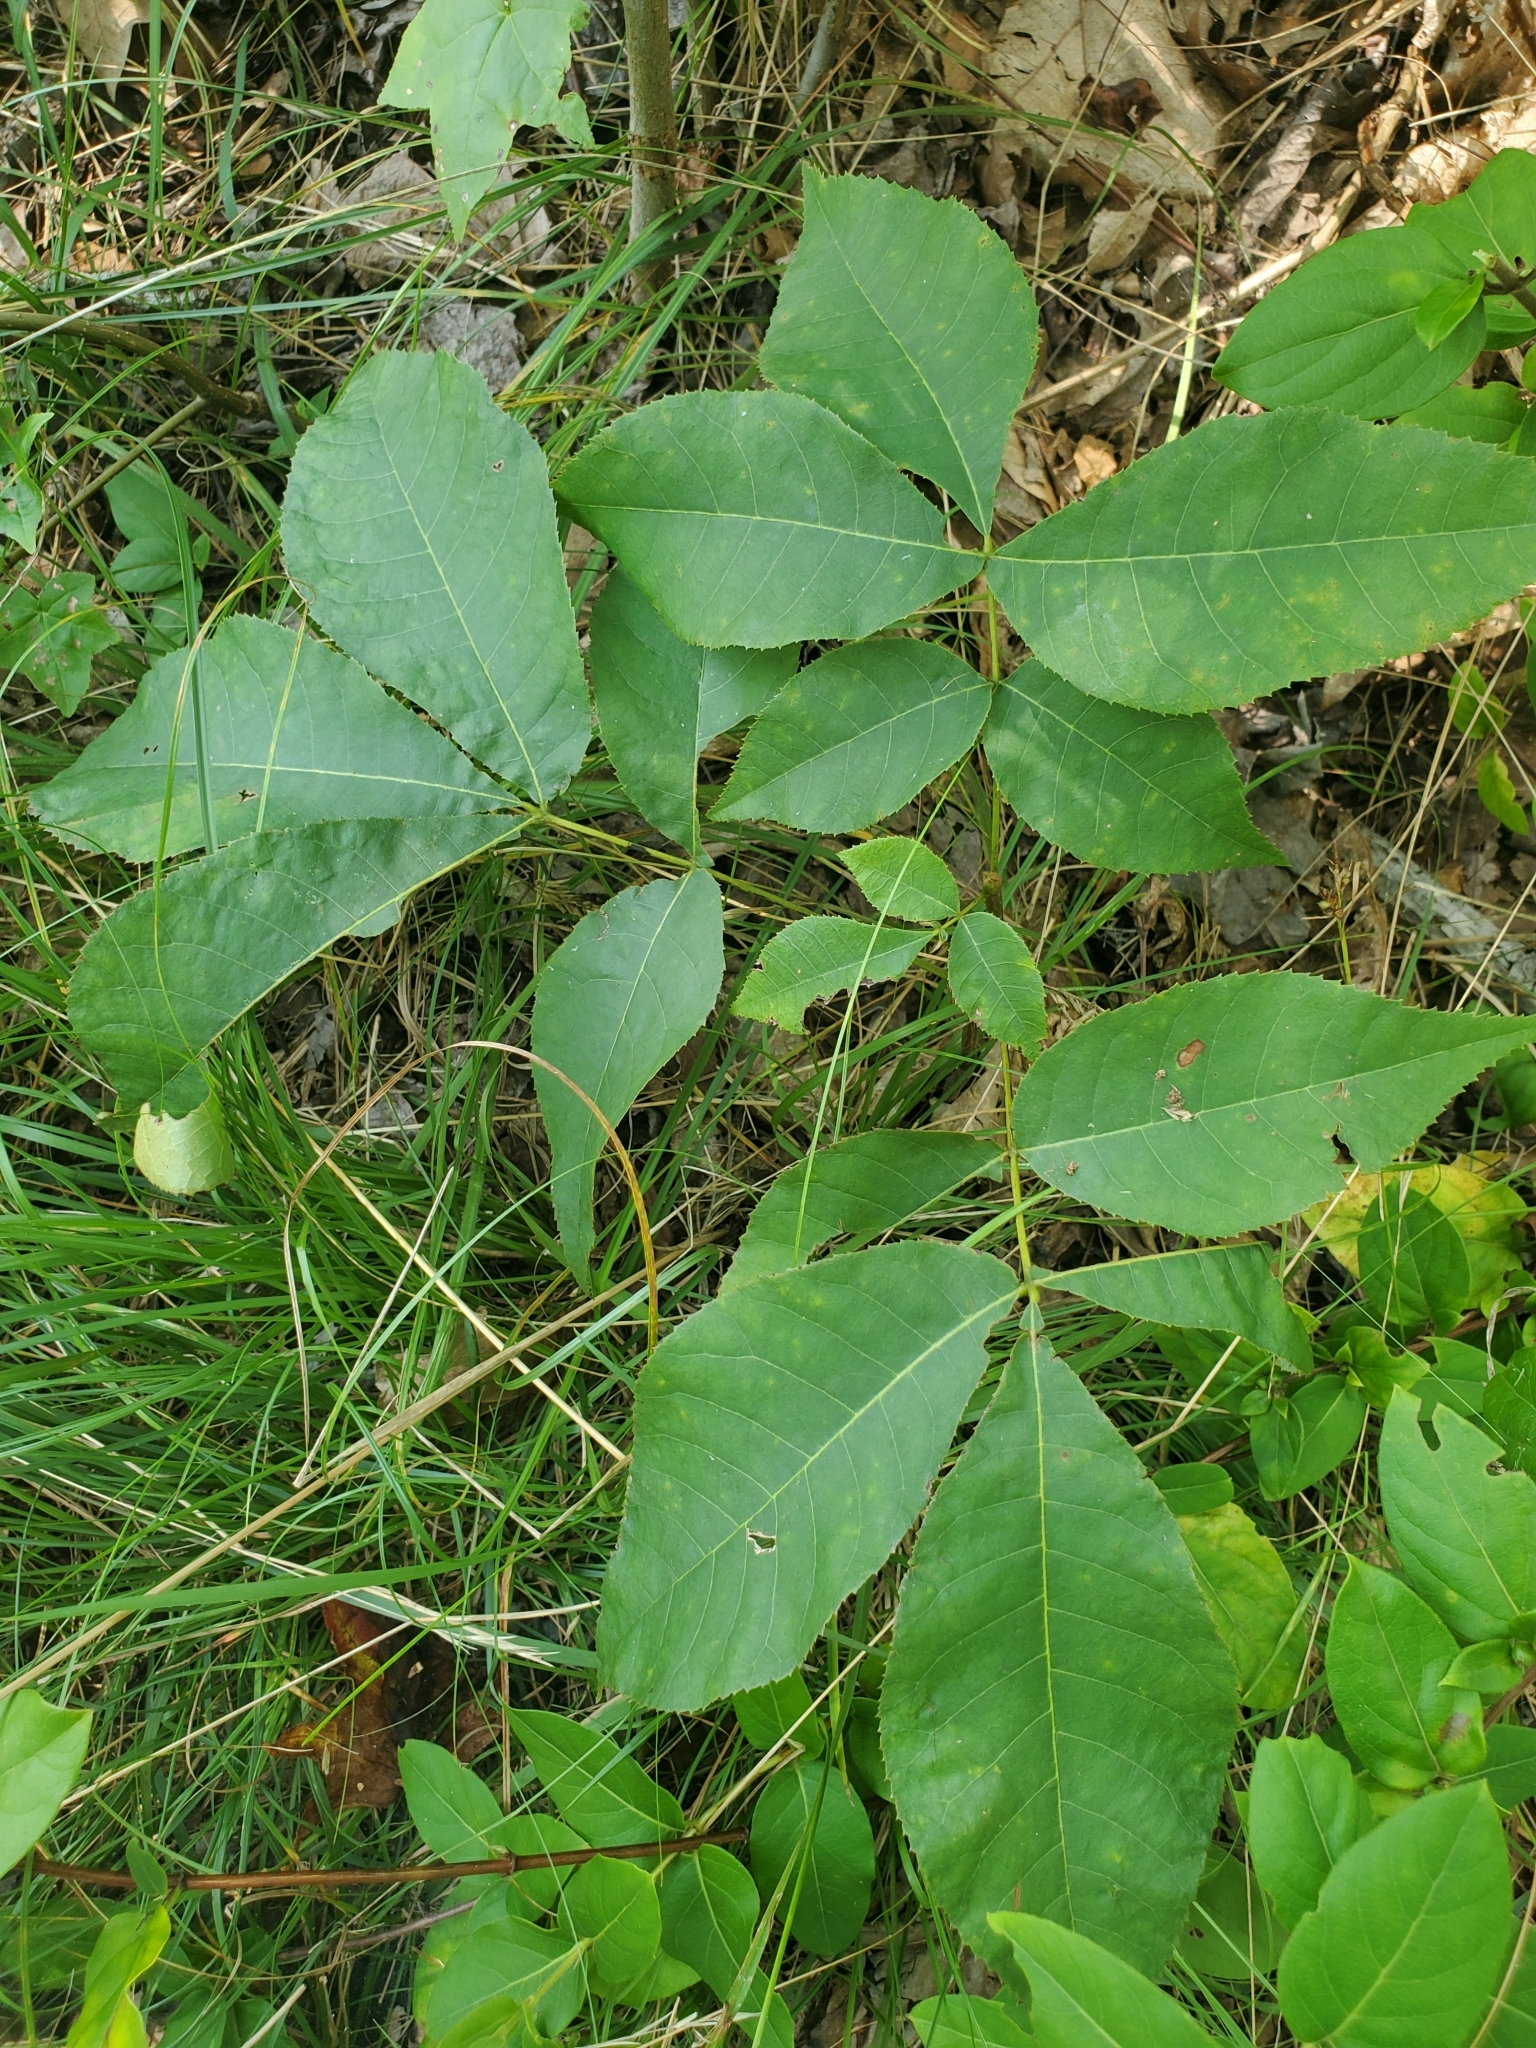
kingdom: Plantae
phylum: Tracheophyta
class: Magnoliopsida
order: Fagales
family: Juglandaceae
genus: Carya
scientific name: Carya glabra
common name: Pignut hickory
